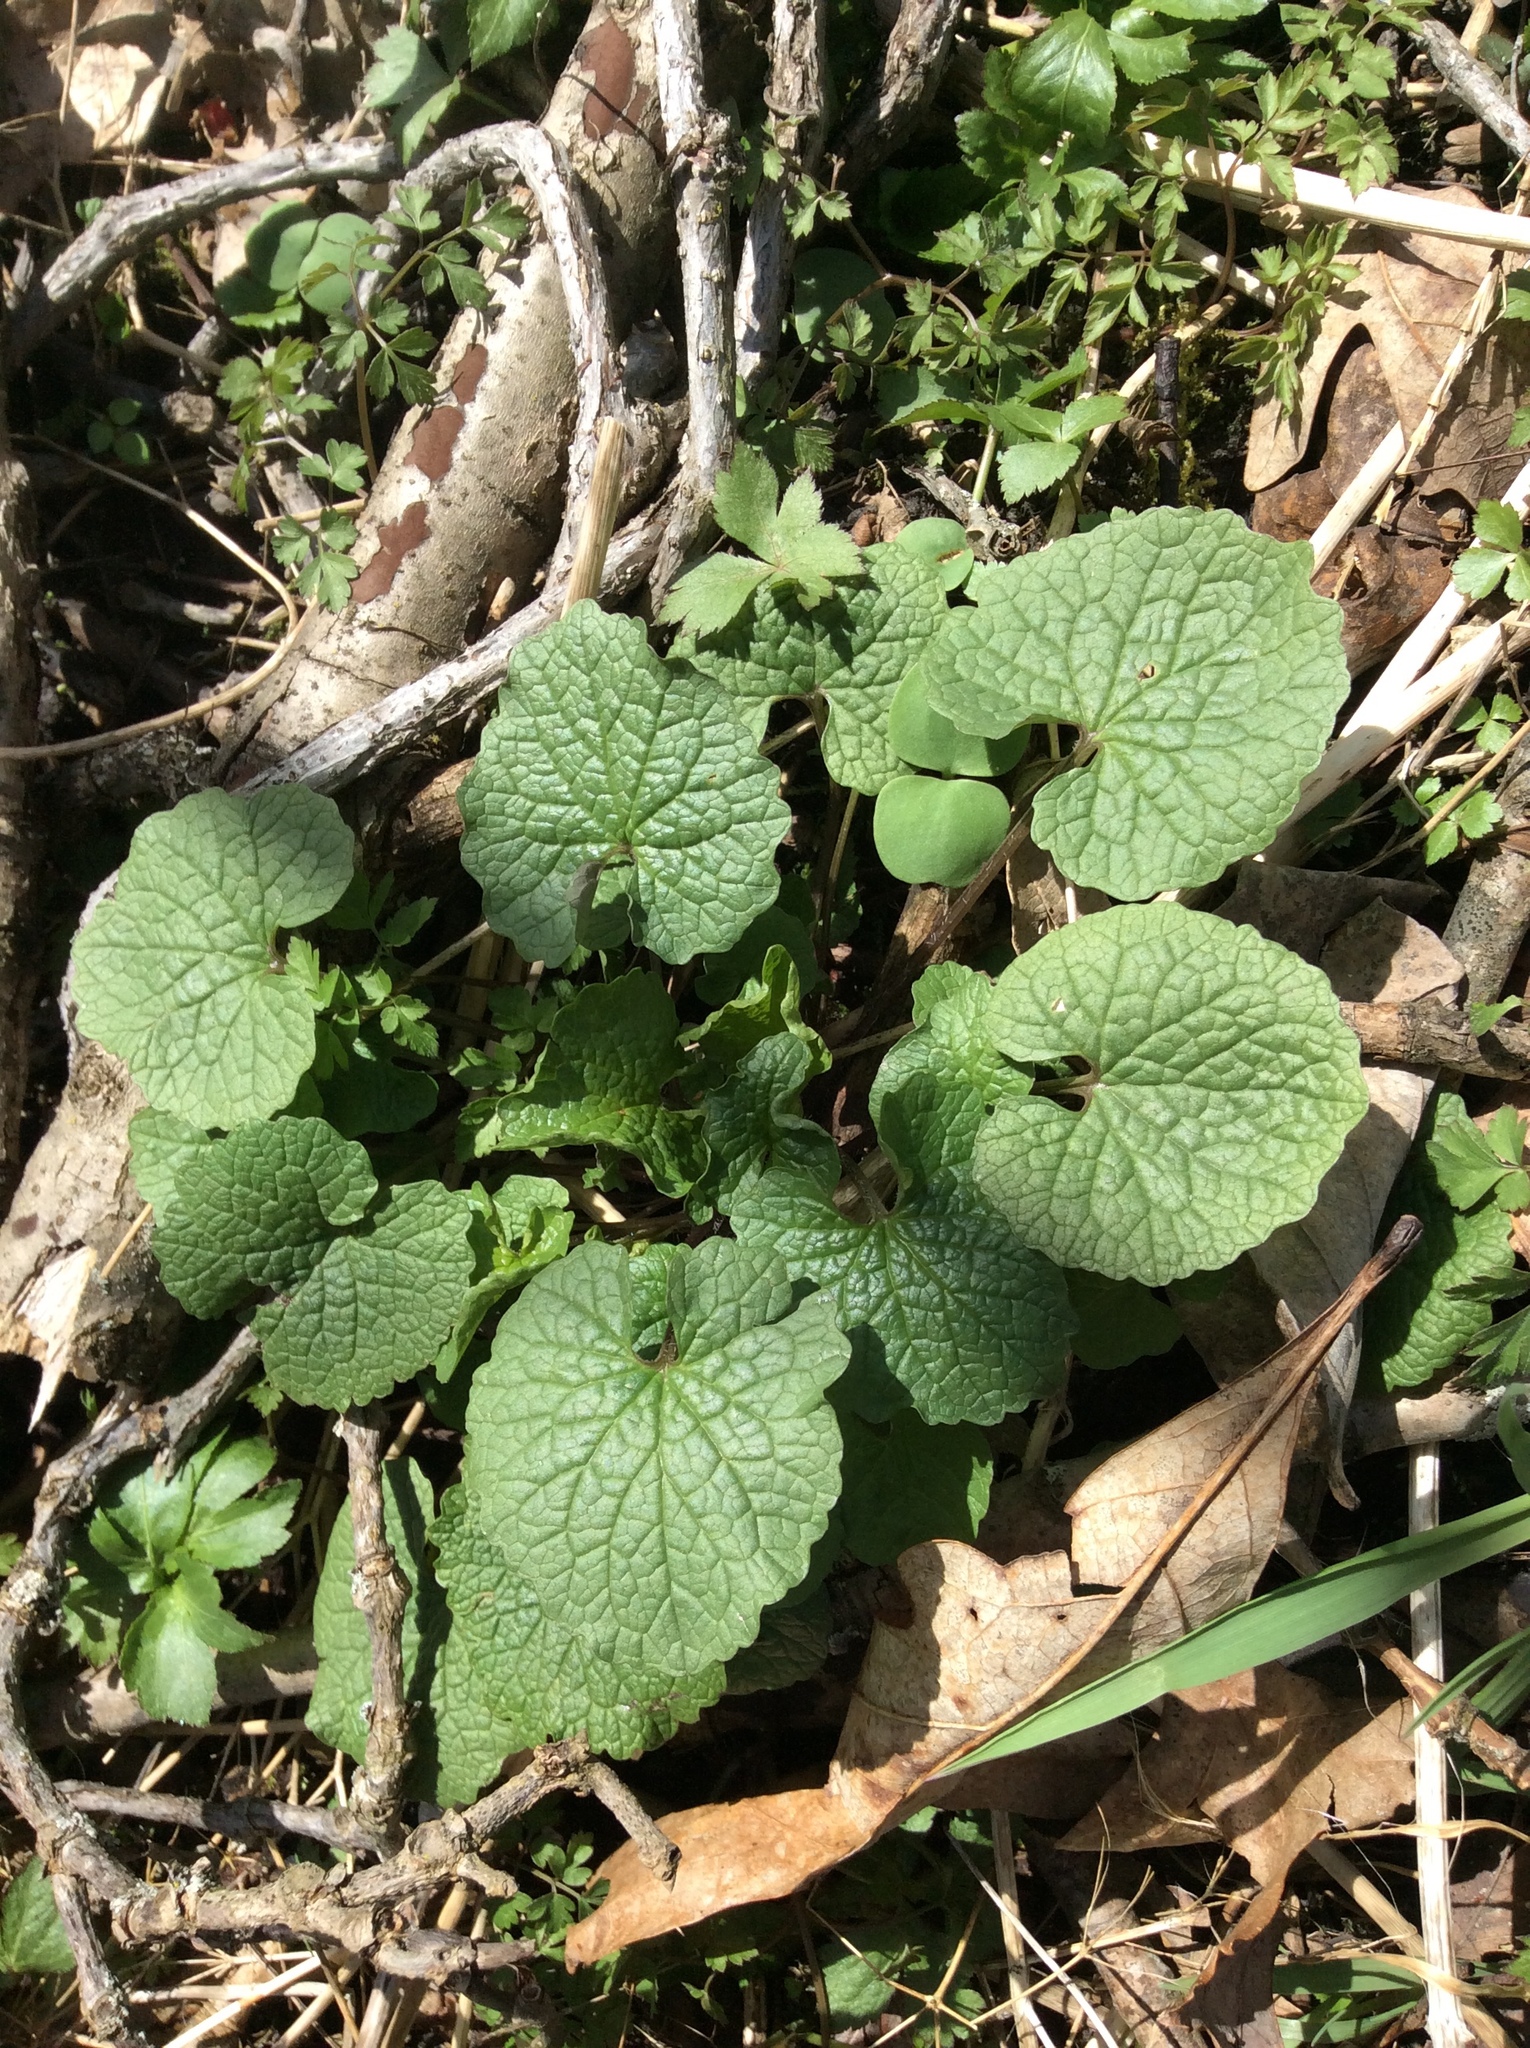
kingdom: Plantae
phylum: Tracheophyta
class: Magnoliopsida
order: Brassicales
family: Brassicaceae
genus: Alliaria
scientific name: Alliaria petiolata
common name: Garlic mustard
